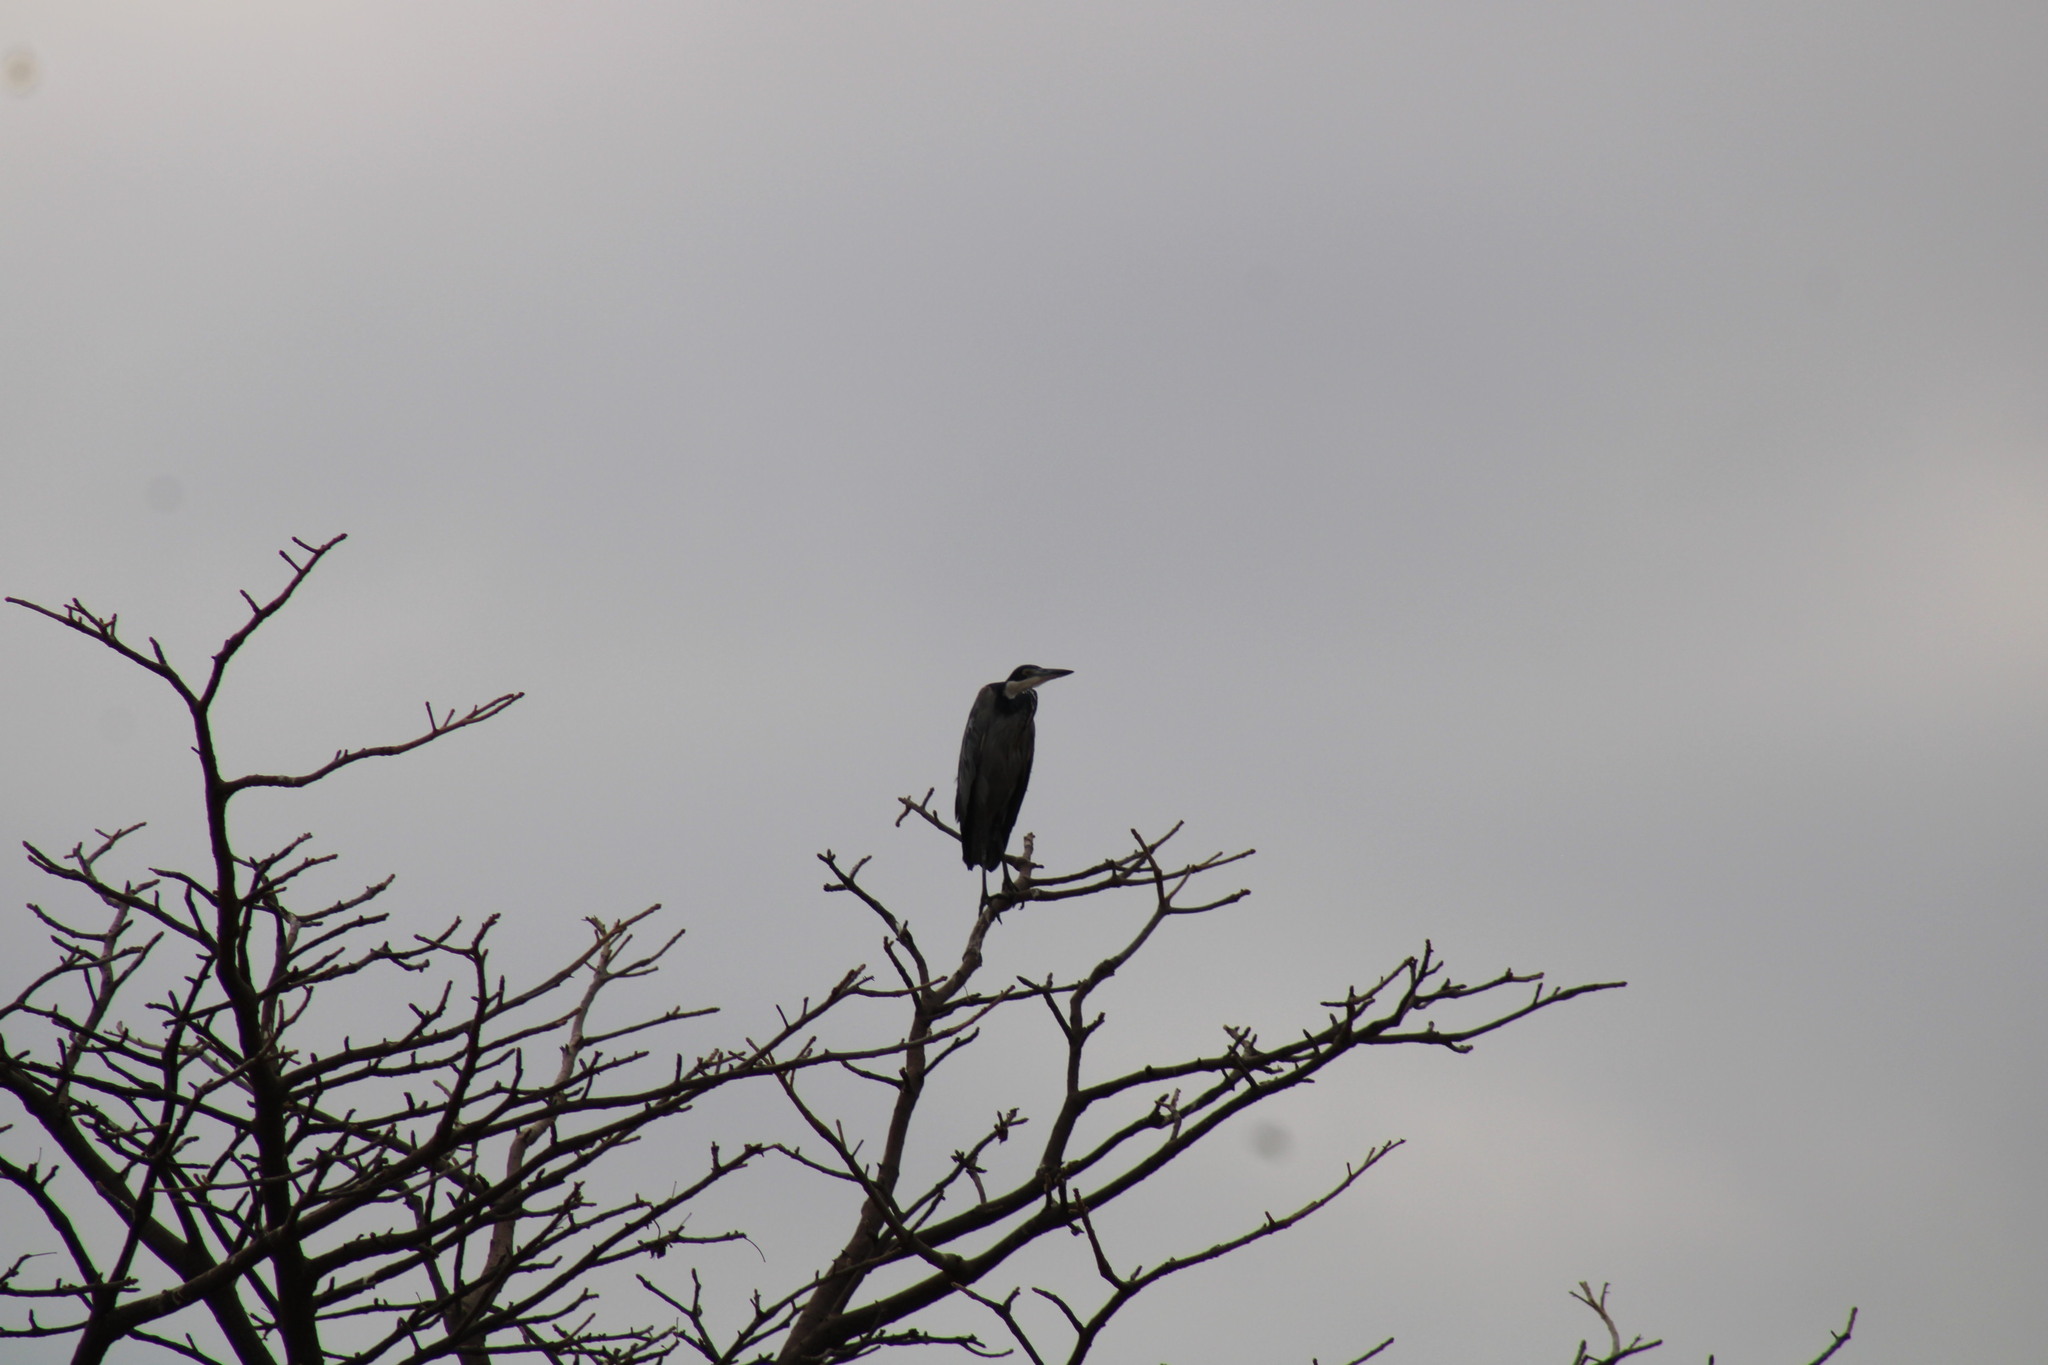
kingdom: Animalia
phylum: Chordata
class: Aves
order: Pelecaniformes
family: Ardeidae
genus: Ardea
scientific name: Ardea melanocephala
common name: Black-headed heron
